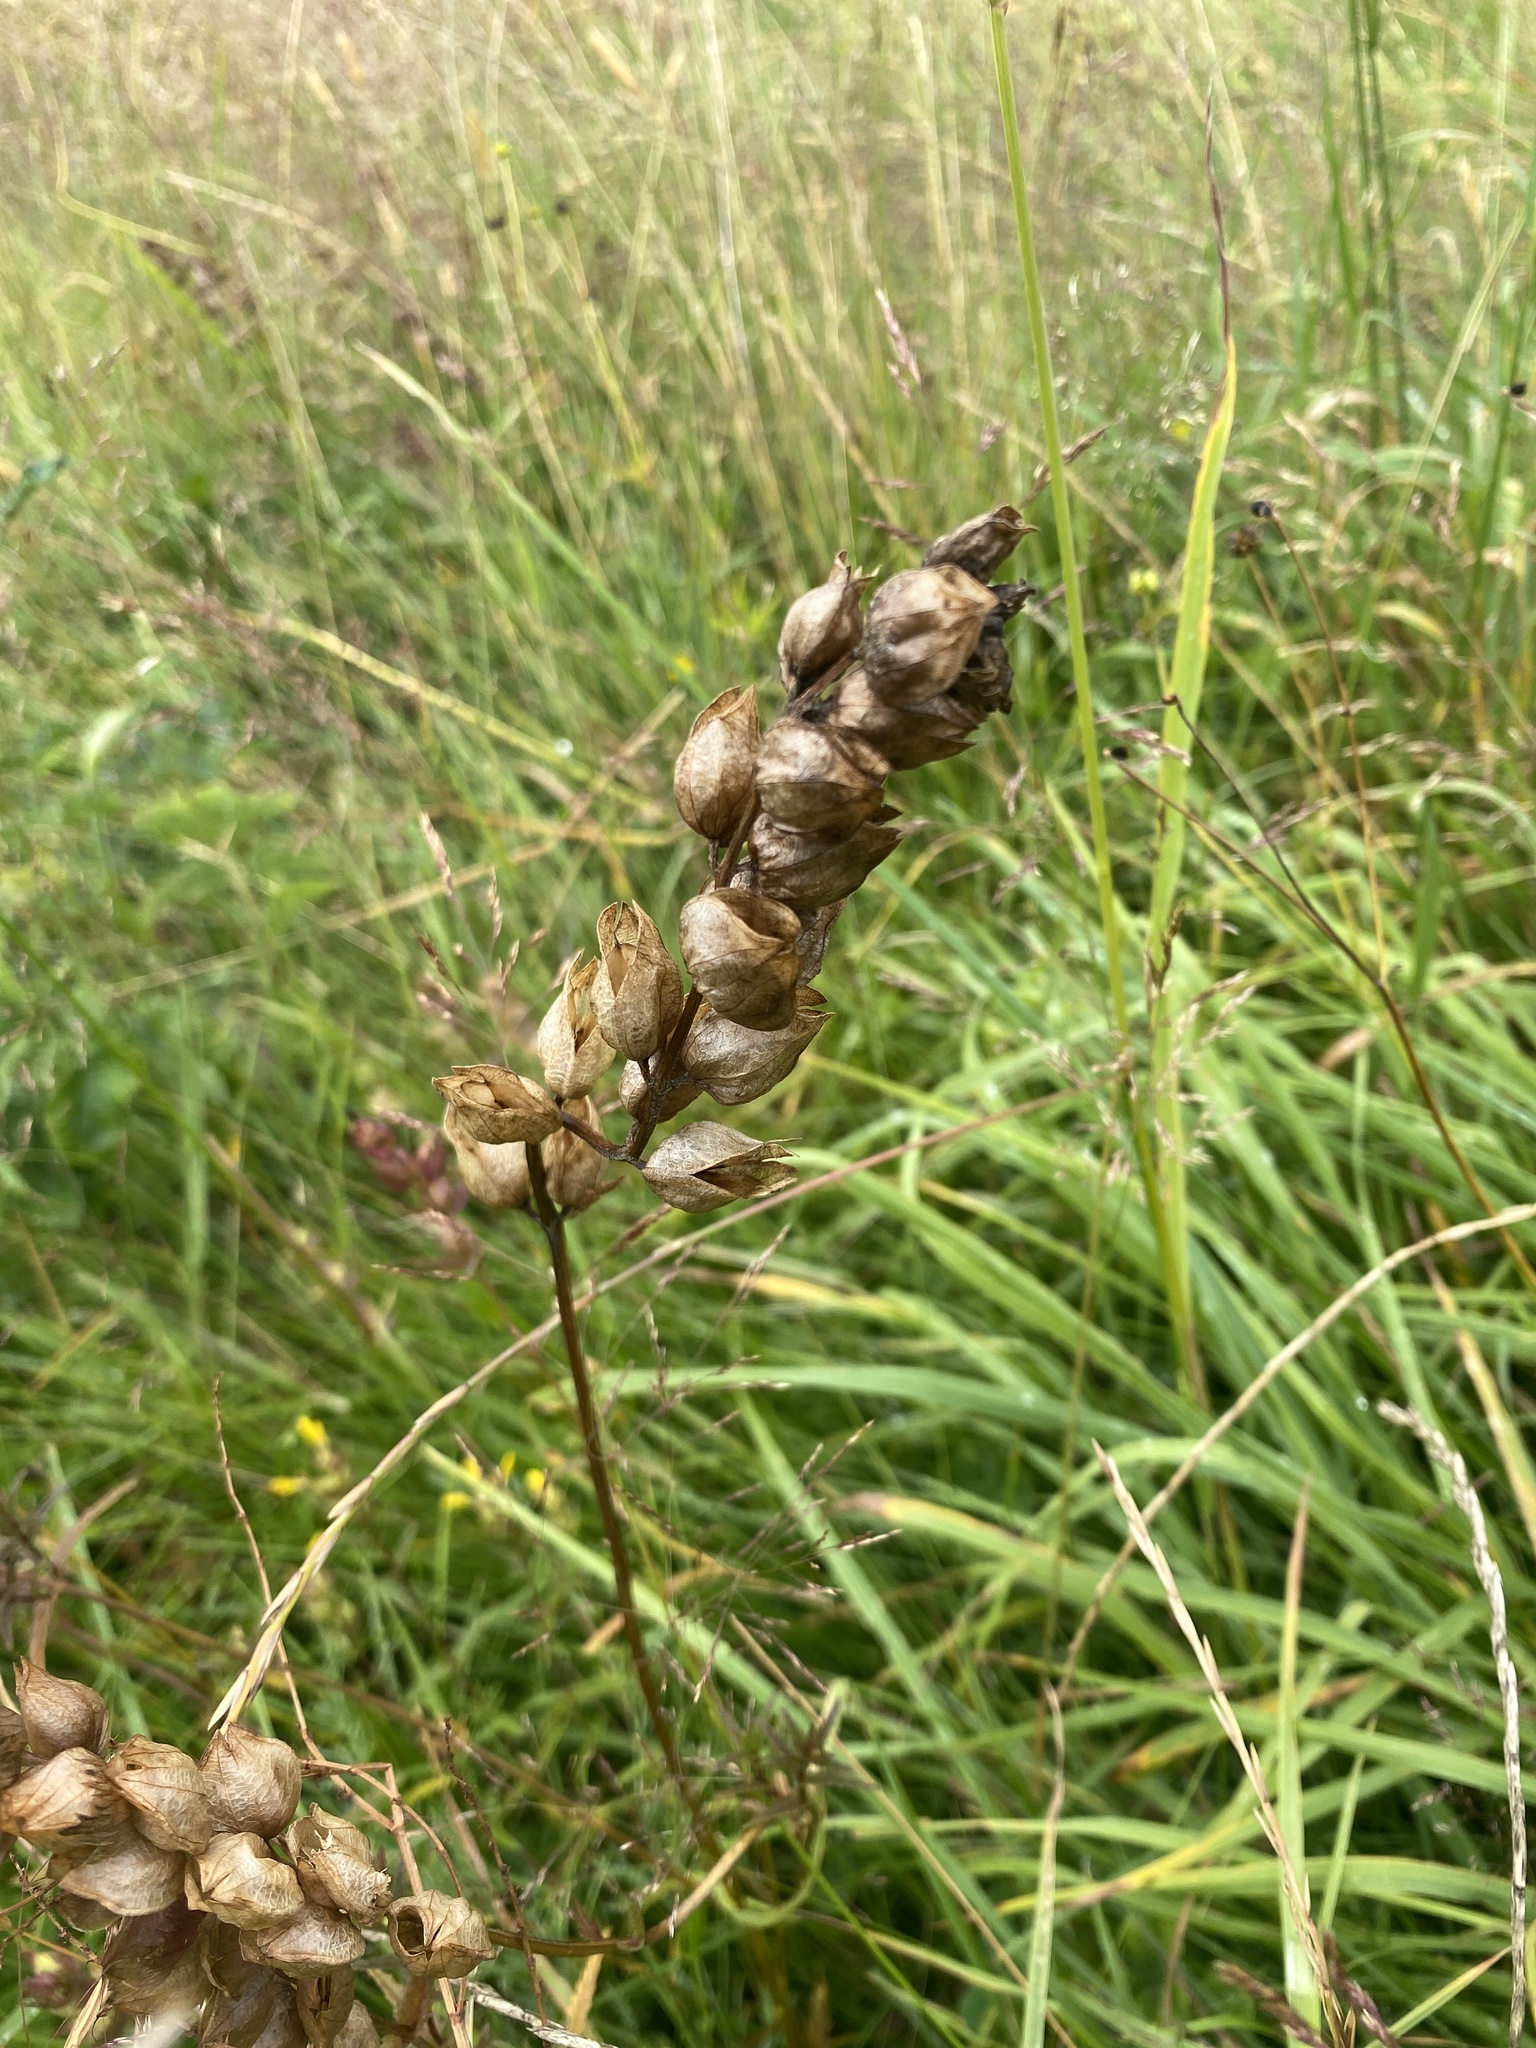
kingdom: Plantae
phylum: Tracheophyta
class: Magnoliopsida
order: Lamiales
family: Orobanchaceae
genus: Rhinanthus
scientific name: Rhinanthus minor
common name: Yellow-rattle
